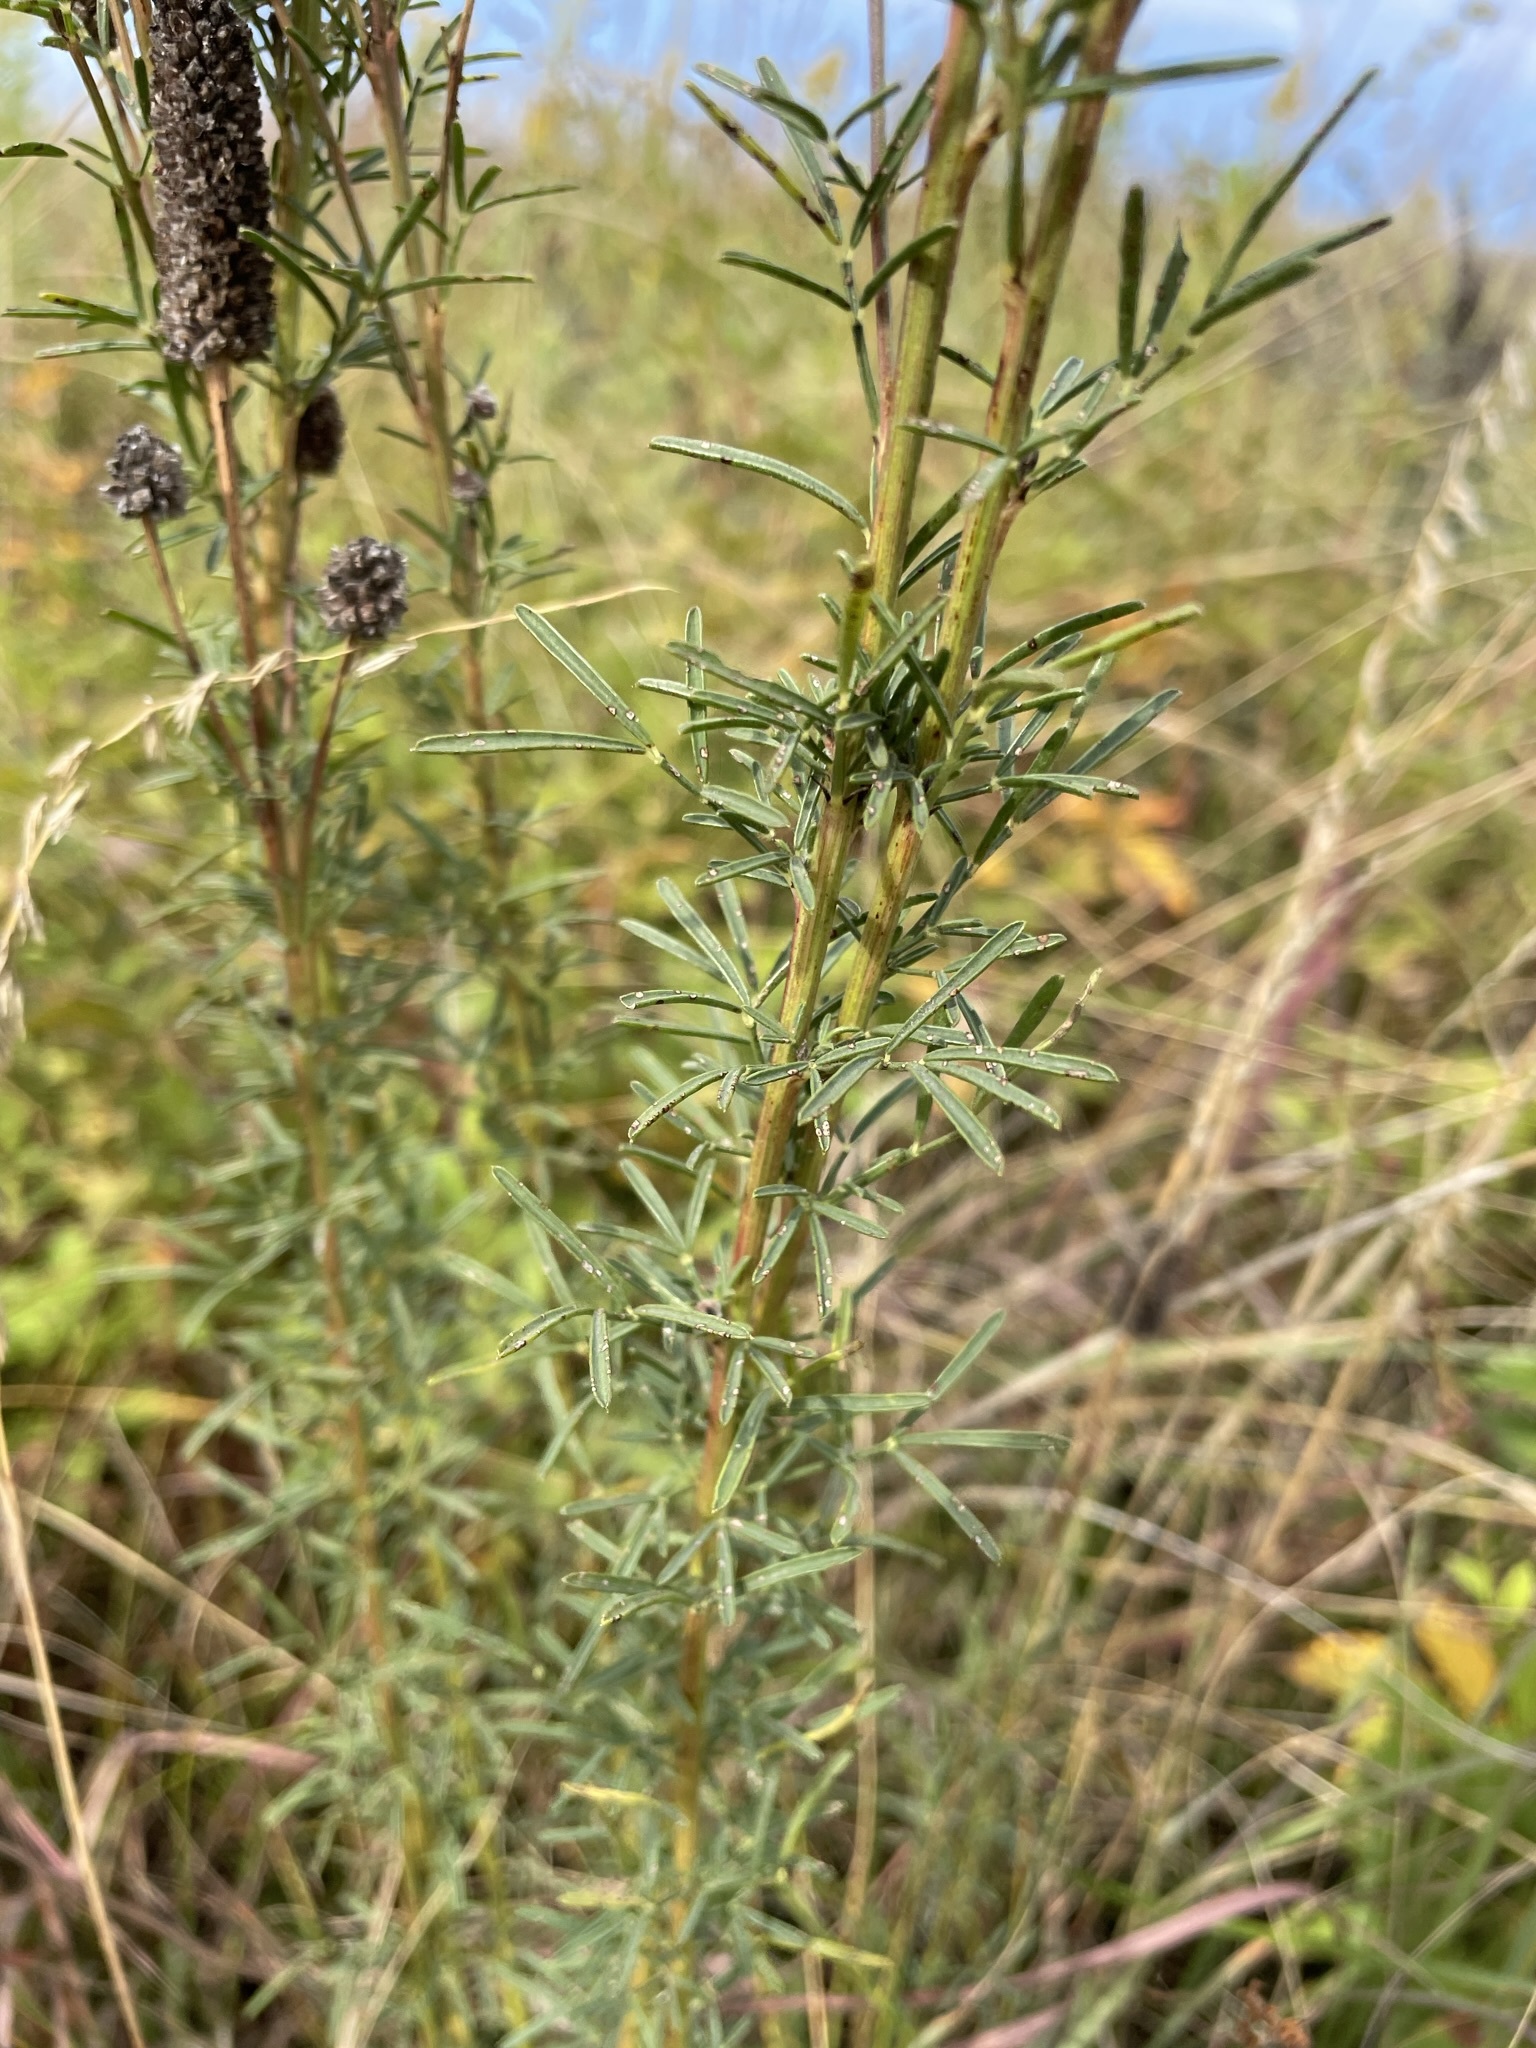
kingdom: Plantae
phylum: Tracheophyta
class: Magnoliopsida
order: Fabales
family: Fabaceae
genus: Dalea
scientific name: Dalea purpurea
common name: Purple prairie-clover
